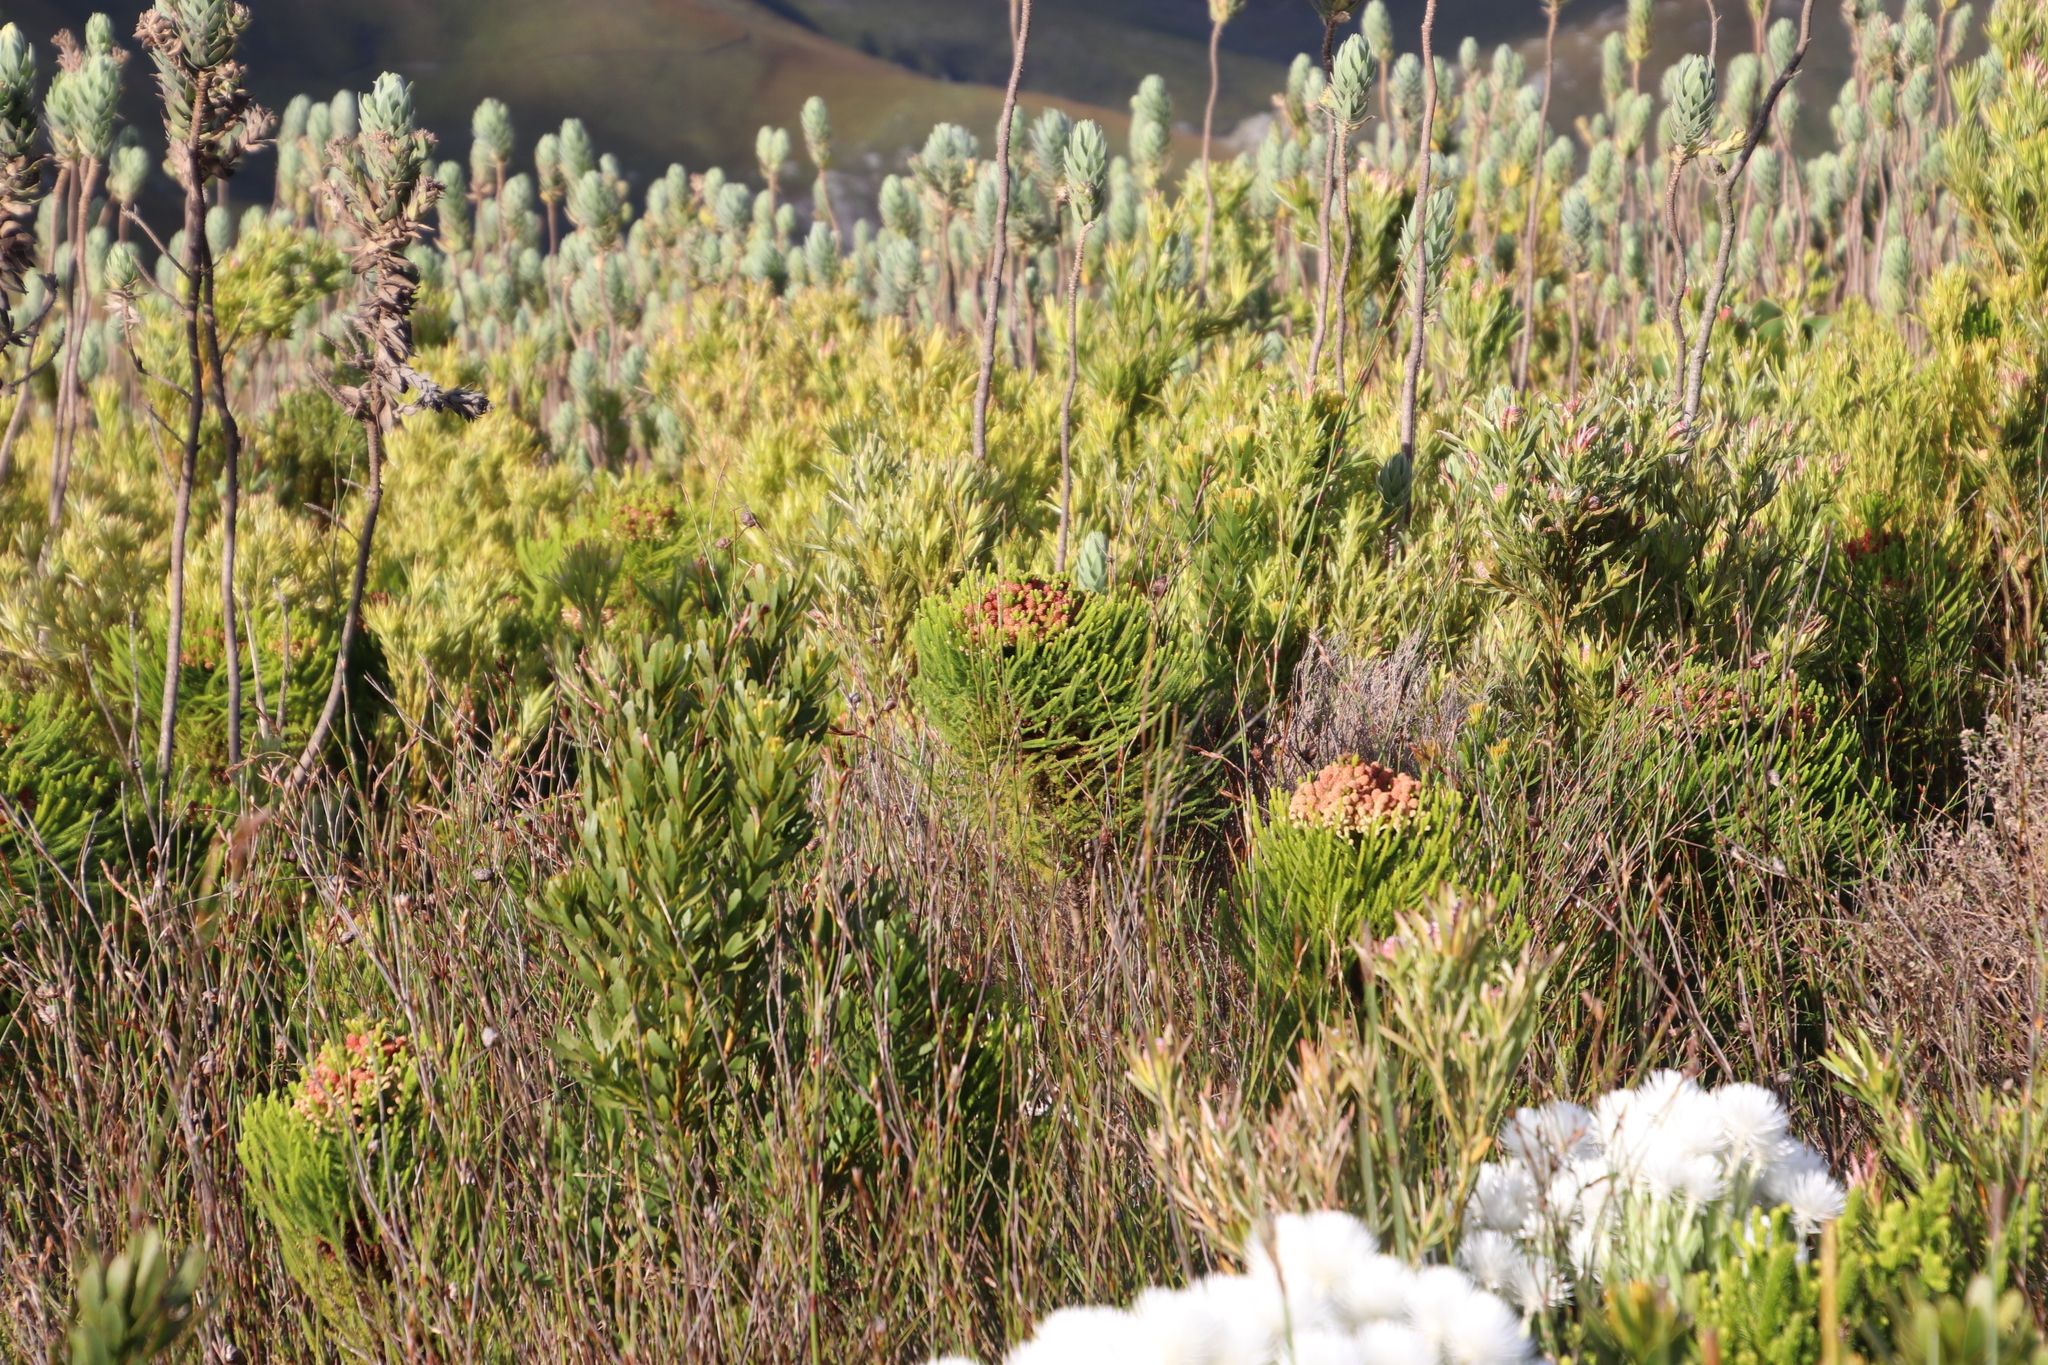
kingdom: Plantae
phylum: Tracheophyta
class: Magnoliopsida
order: Bruniales
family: Bruniaceae
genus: Berzelia
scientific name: Berzelia alopecurioides
